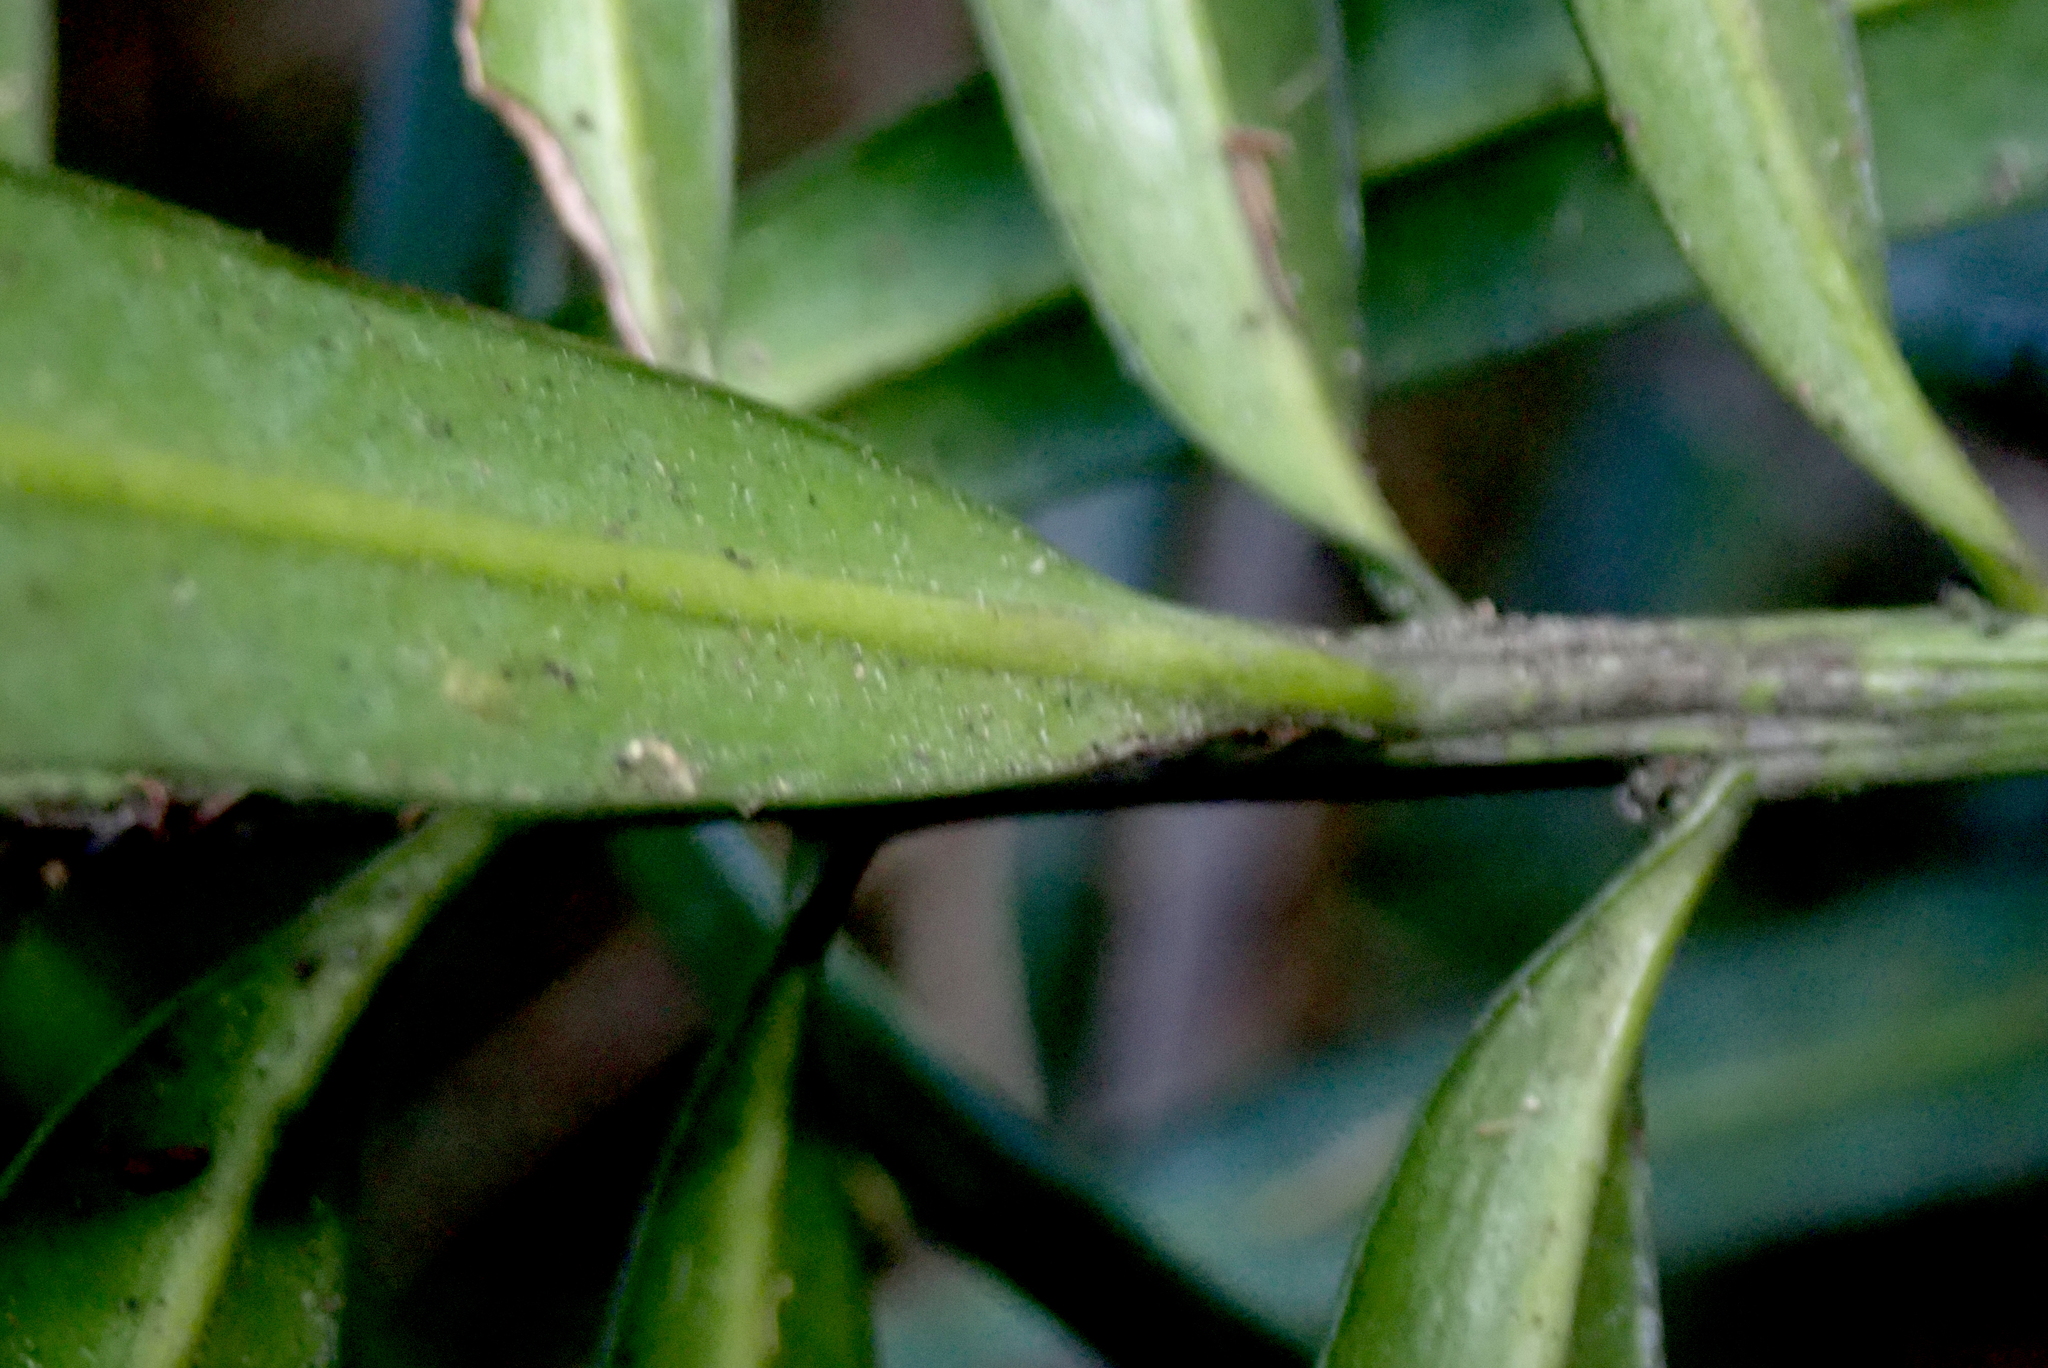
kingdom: Plantae
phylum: Tracheophyta
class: Pinopsida
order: Pinales
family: Podocarpaceae
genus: Podocarpus
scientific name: Podocarpus henkelii
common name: Henkel's yellowwood
